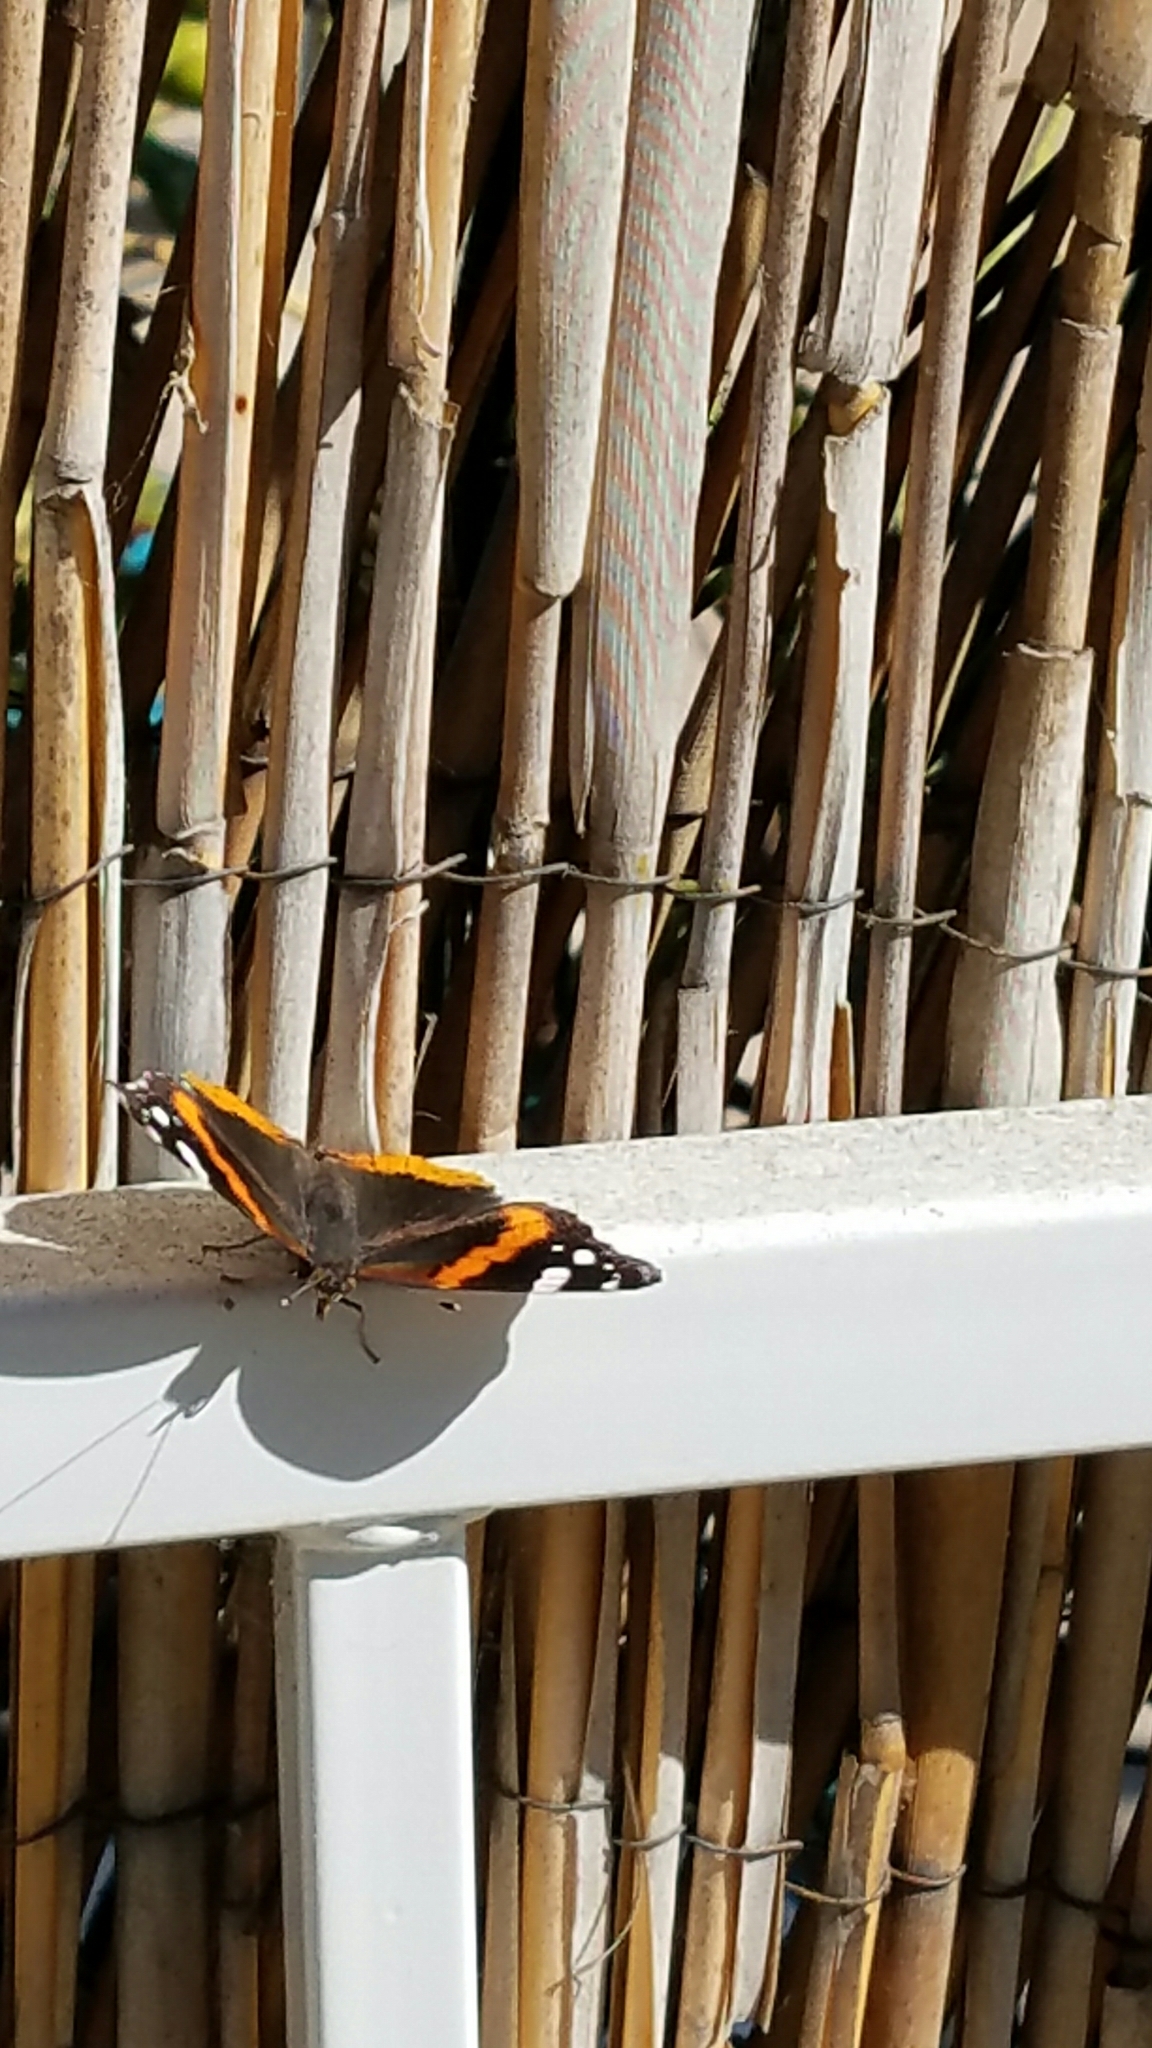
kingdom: Animalia
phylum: Arthropoda
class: Insecta
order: Lepidoptera
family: Nymphalidae
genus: Vanessa
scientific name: Vanessa atalanta
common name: Red admiral
